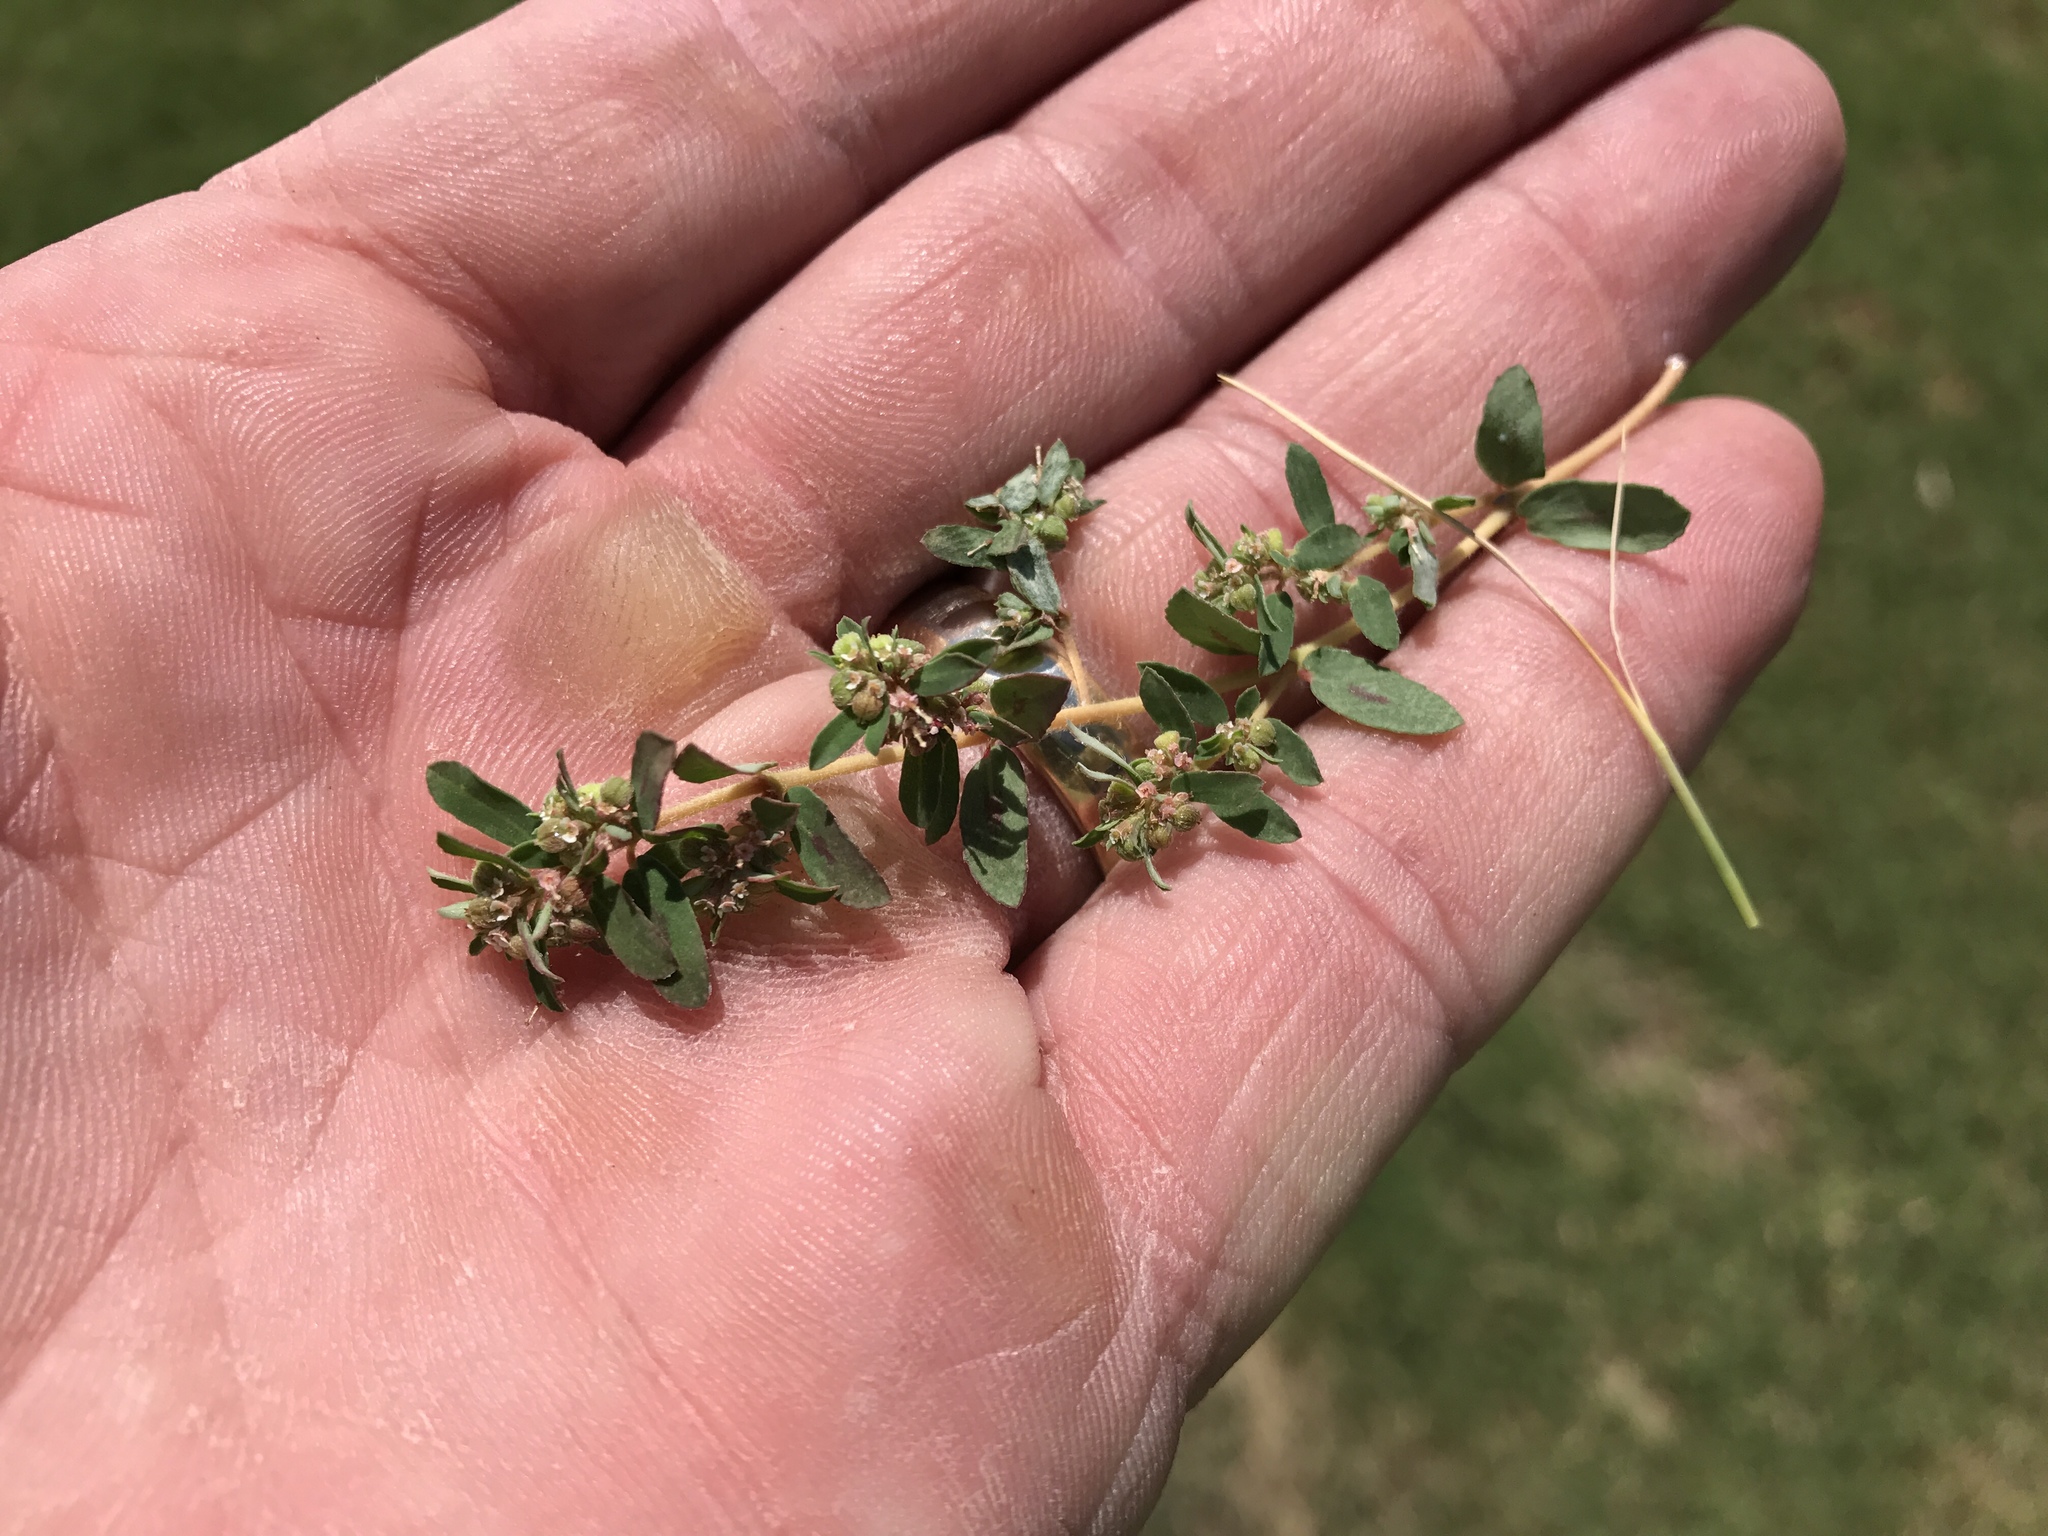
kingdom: Plantae
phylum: Tracheophyta
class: Magnoliopsida
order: Malpighiales
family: Euphorbiaceae
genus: Euphorbia
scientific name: Euphorbia maculata
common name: Spotted spurge
